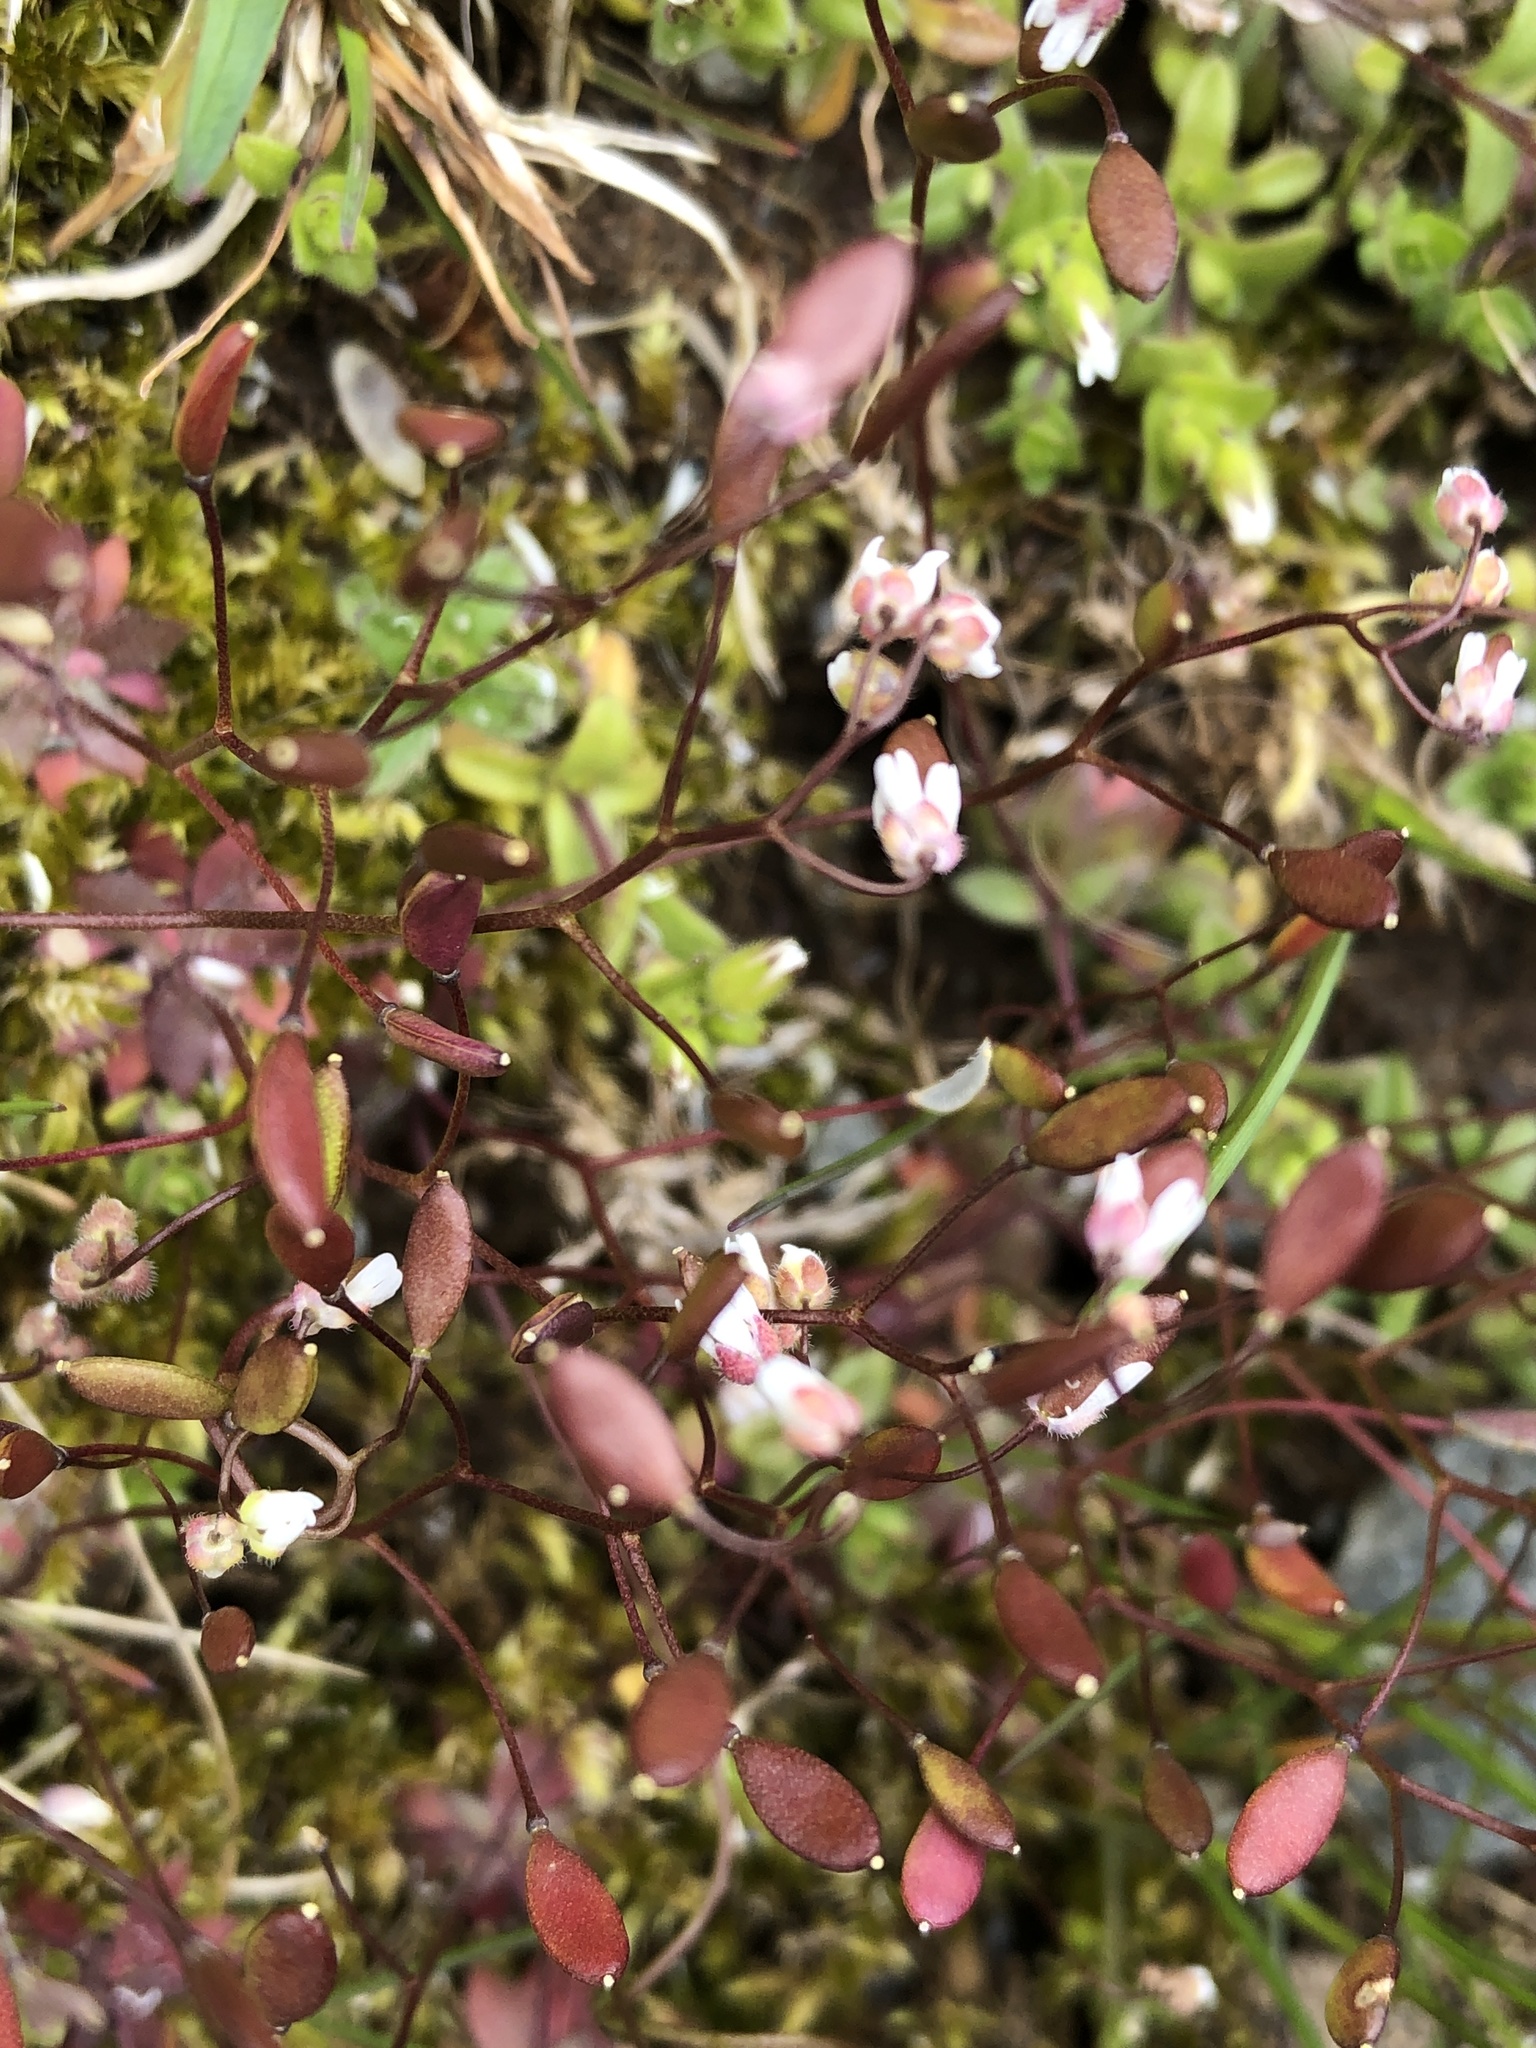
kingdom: Plantae
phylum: Tracheophyta
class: Magnoliopsida
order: Brassicales
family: Brassicaceae
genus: Draba
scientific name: Draba verna
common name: Spring draba
